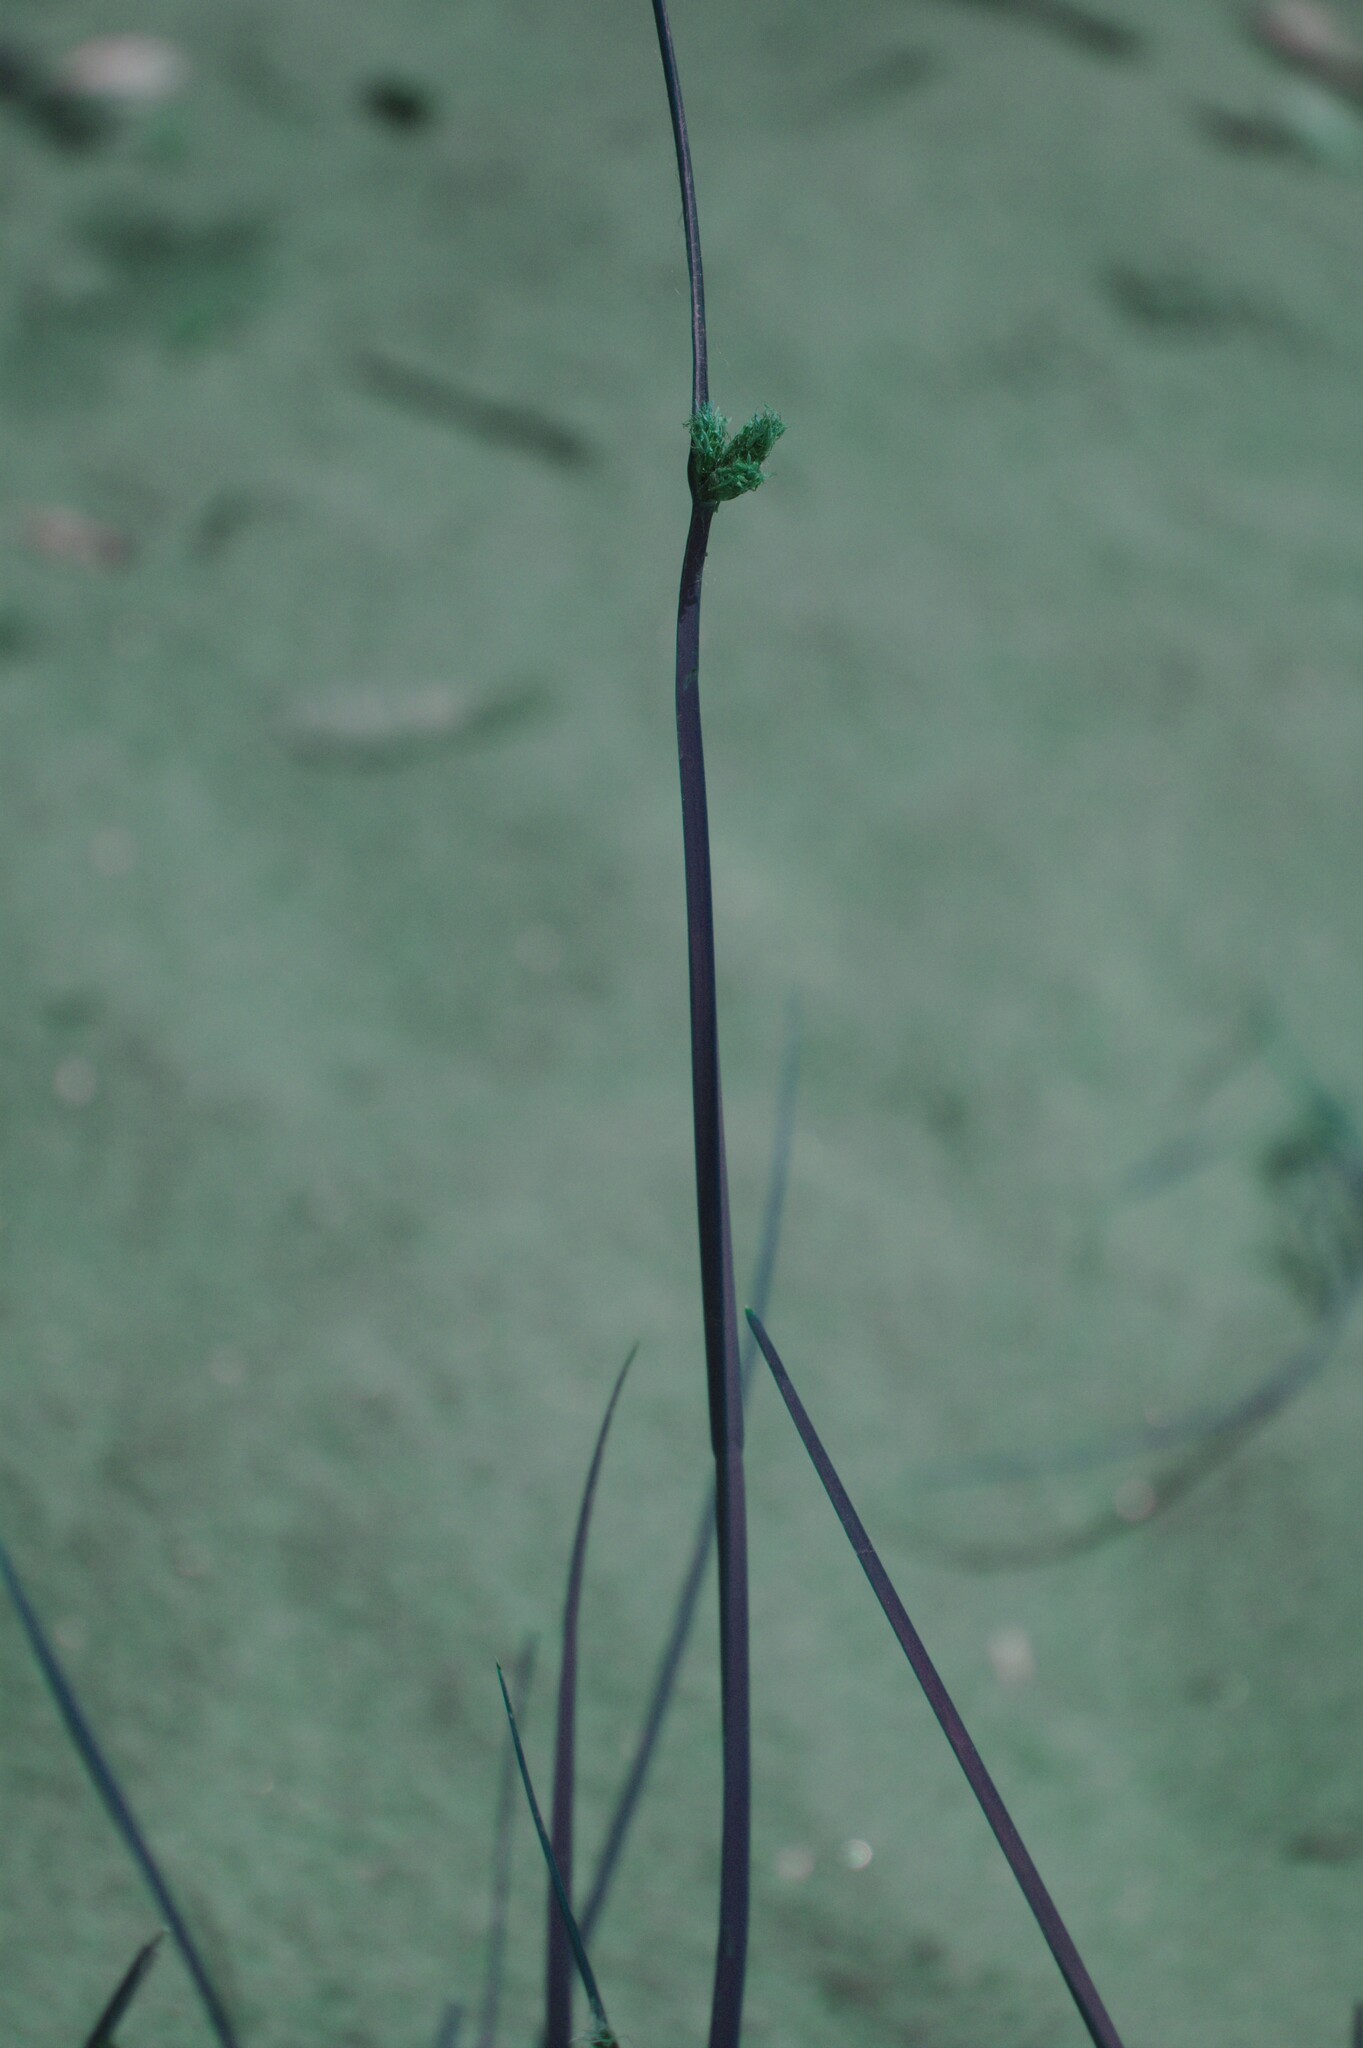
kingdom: Plantae
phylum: Tracheophyta
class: Liliopsida
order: Poales
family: Cyperaceae
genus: Schoenoplectus
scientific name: Schoenoplectus pungens
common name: Sharp club-rush
